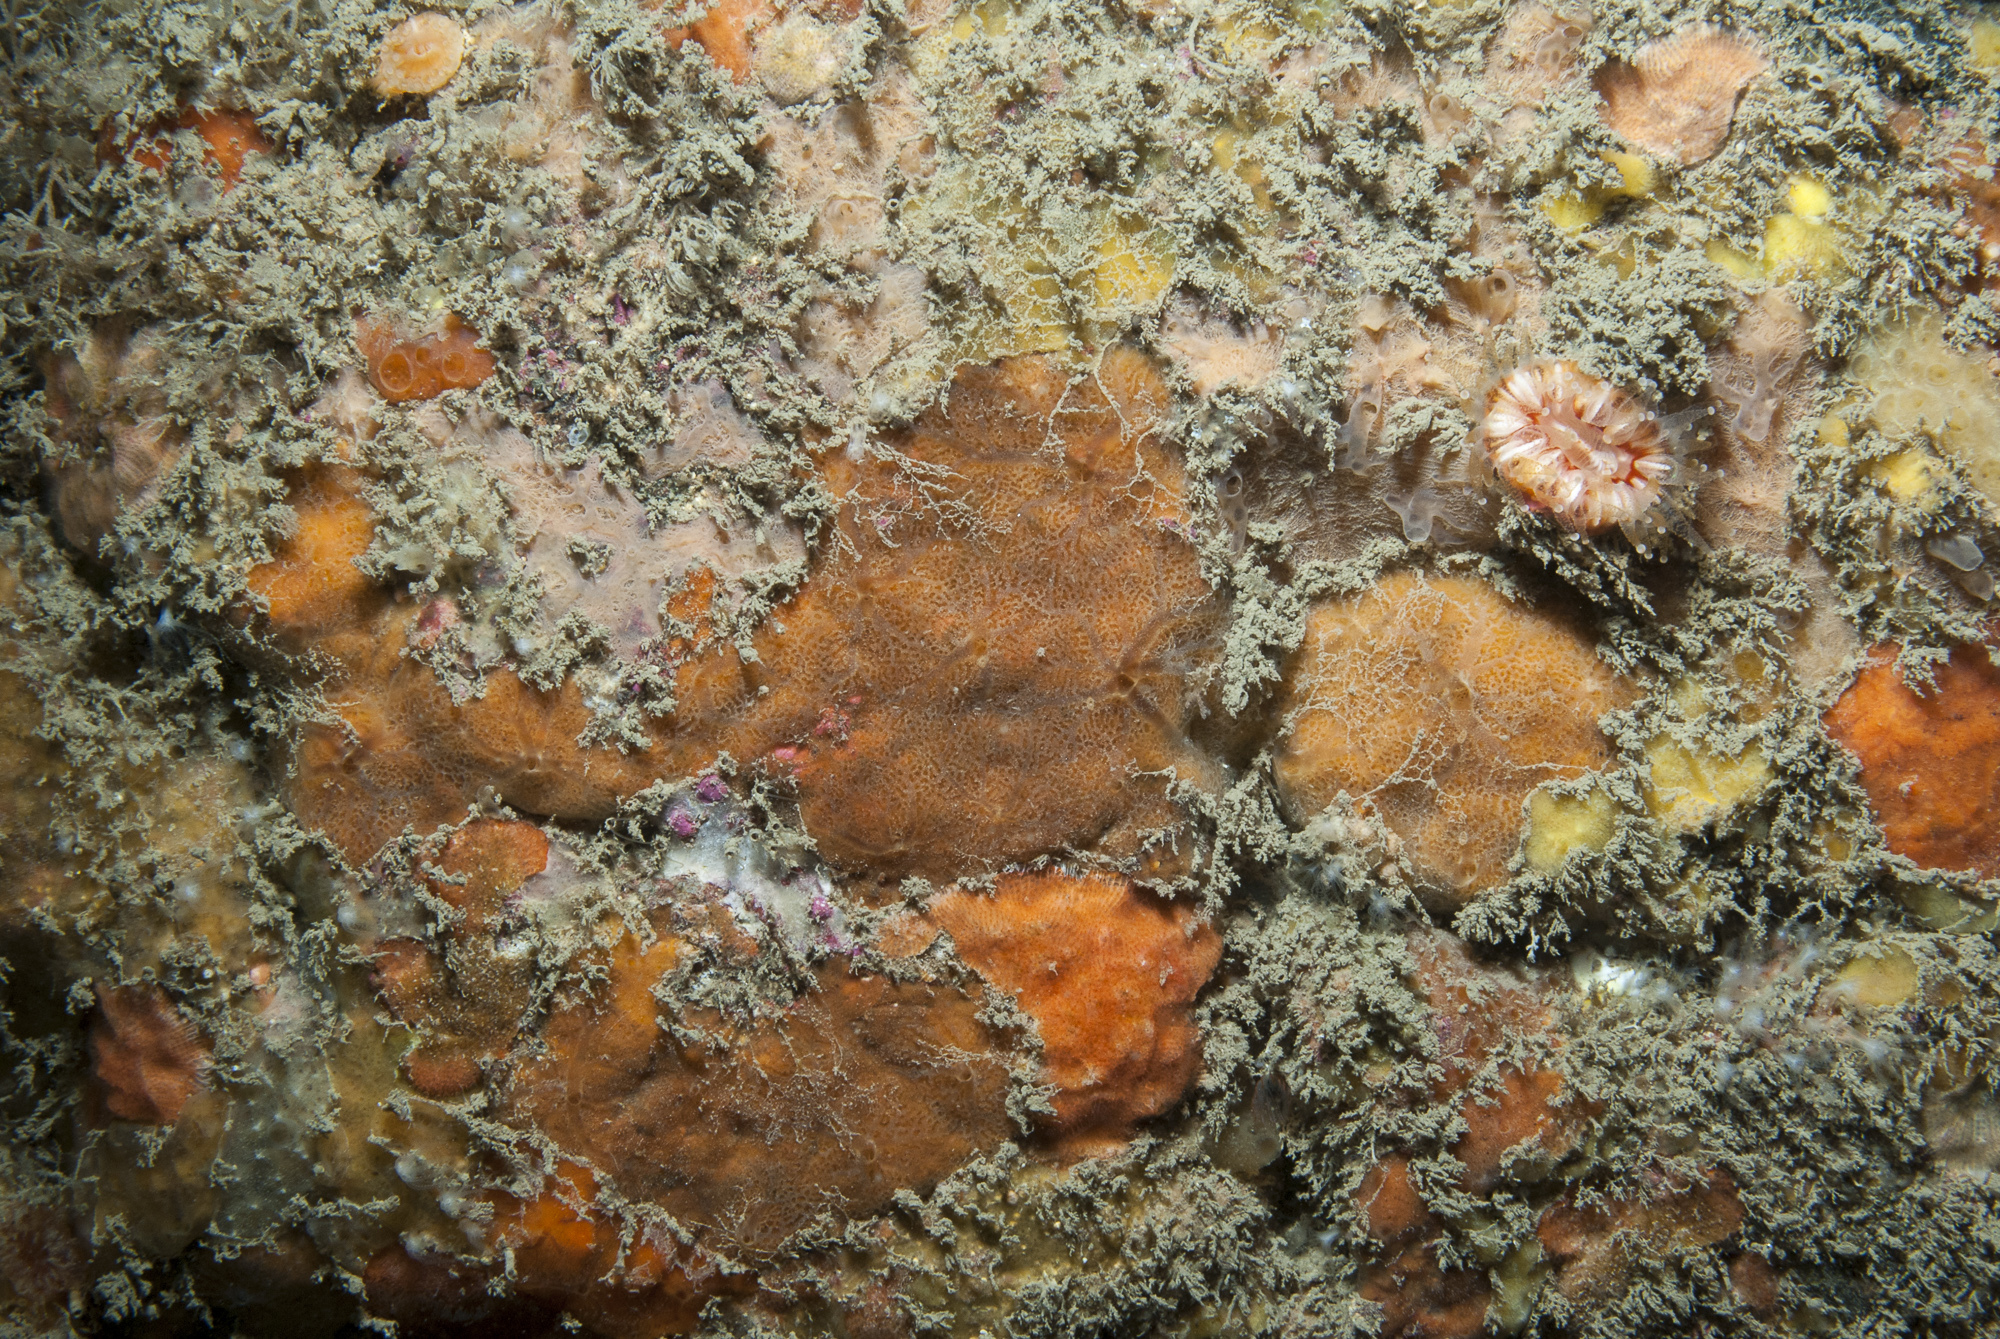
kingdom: Animalia
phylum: Porifera
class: Demospongiae
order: Poecilosclerida
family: Hymedesmiidae
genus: Phorbas
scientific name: Phorbas punctatus
